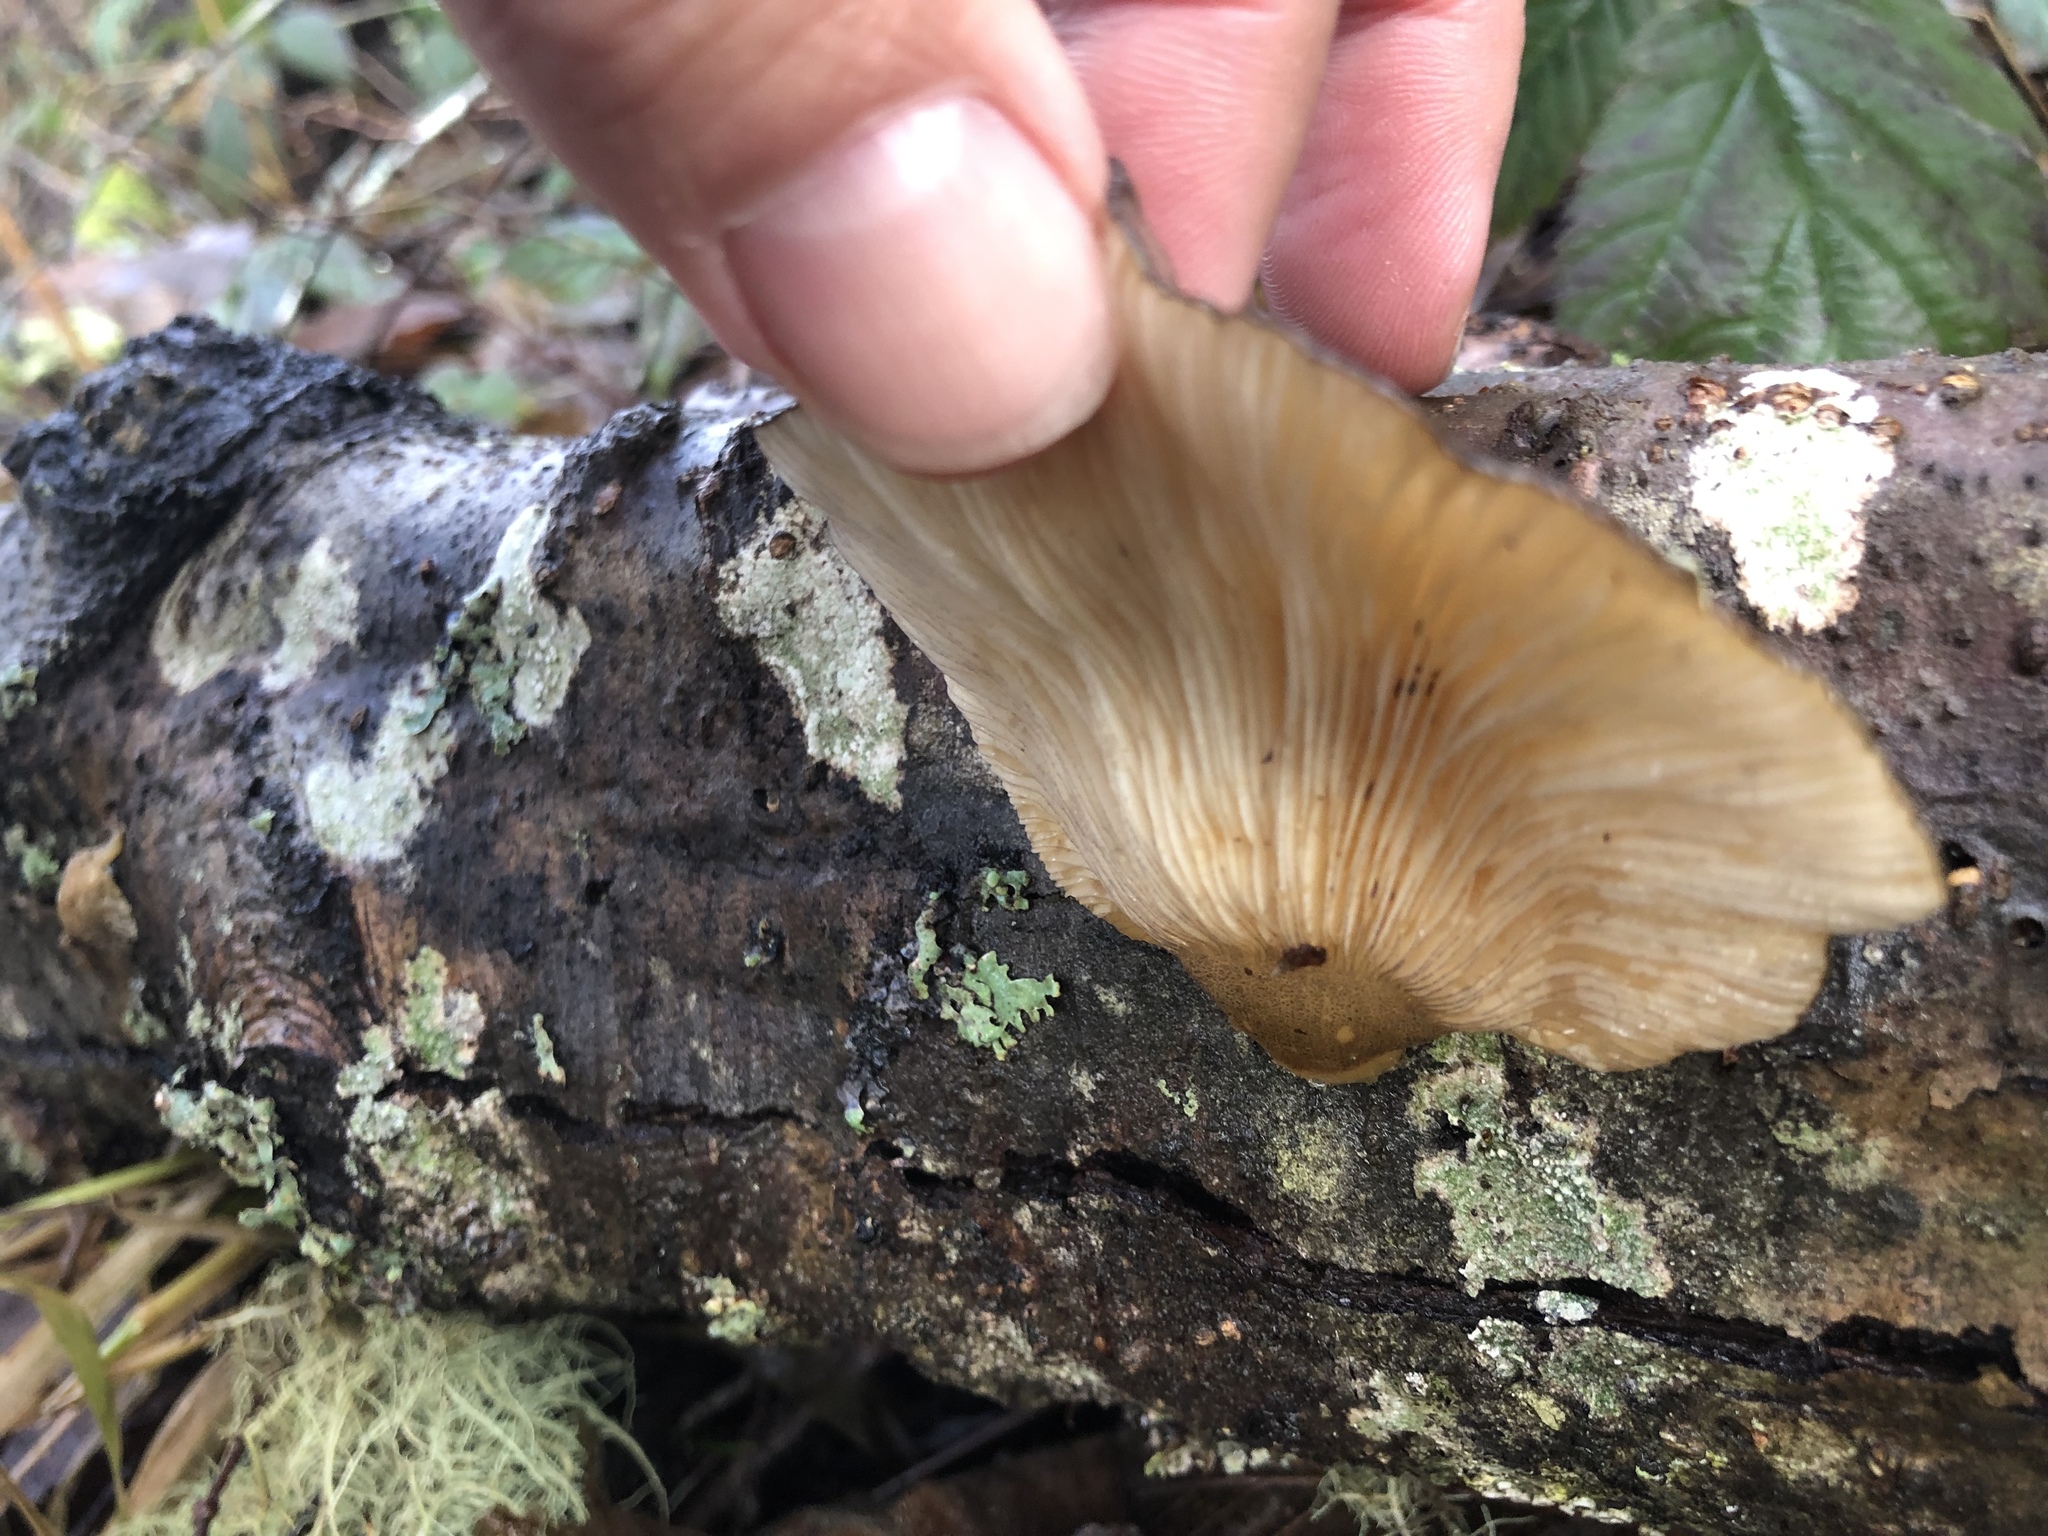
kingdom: Fungi
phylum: Basidiomycota
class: Agaricomycetes
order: Agaricales
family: Sarcomyxaceae
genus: Sarcomyxa
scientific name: Sarcomyxa serotina
